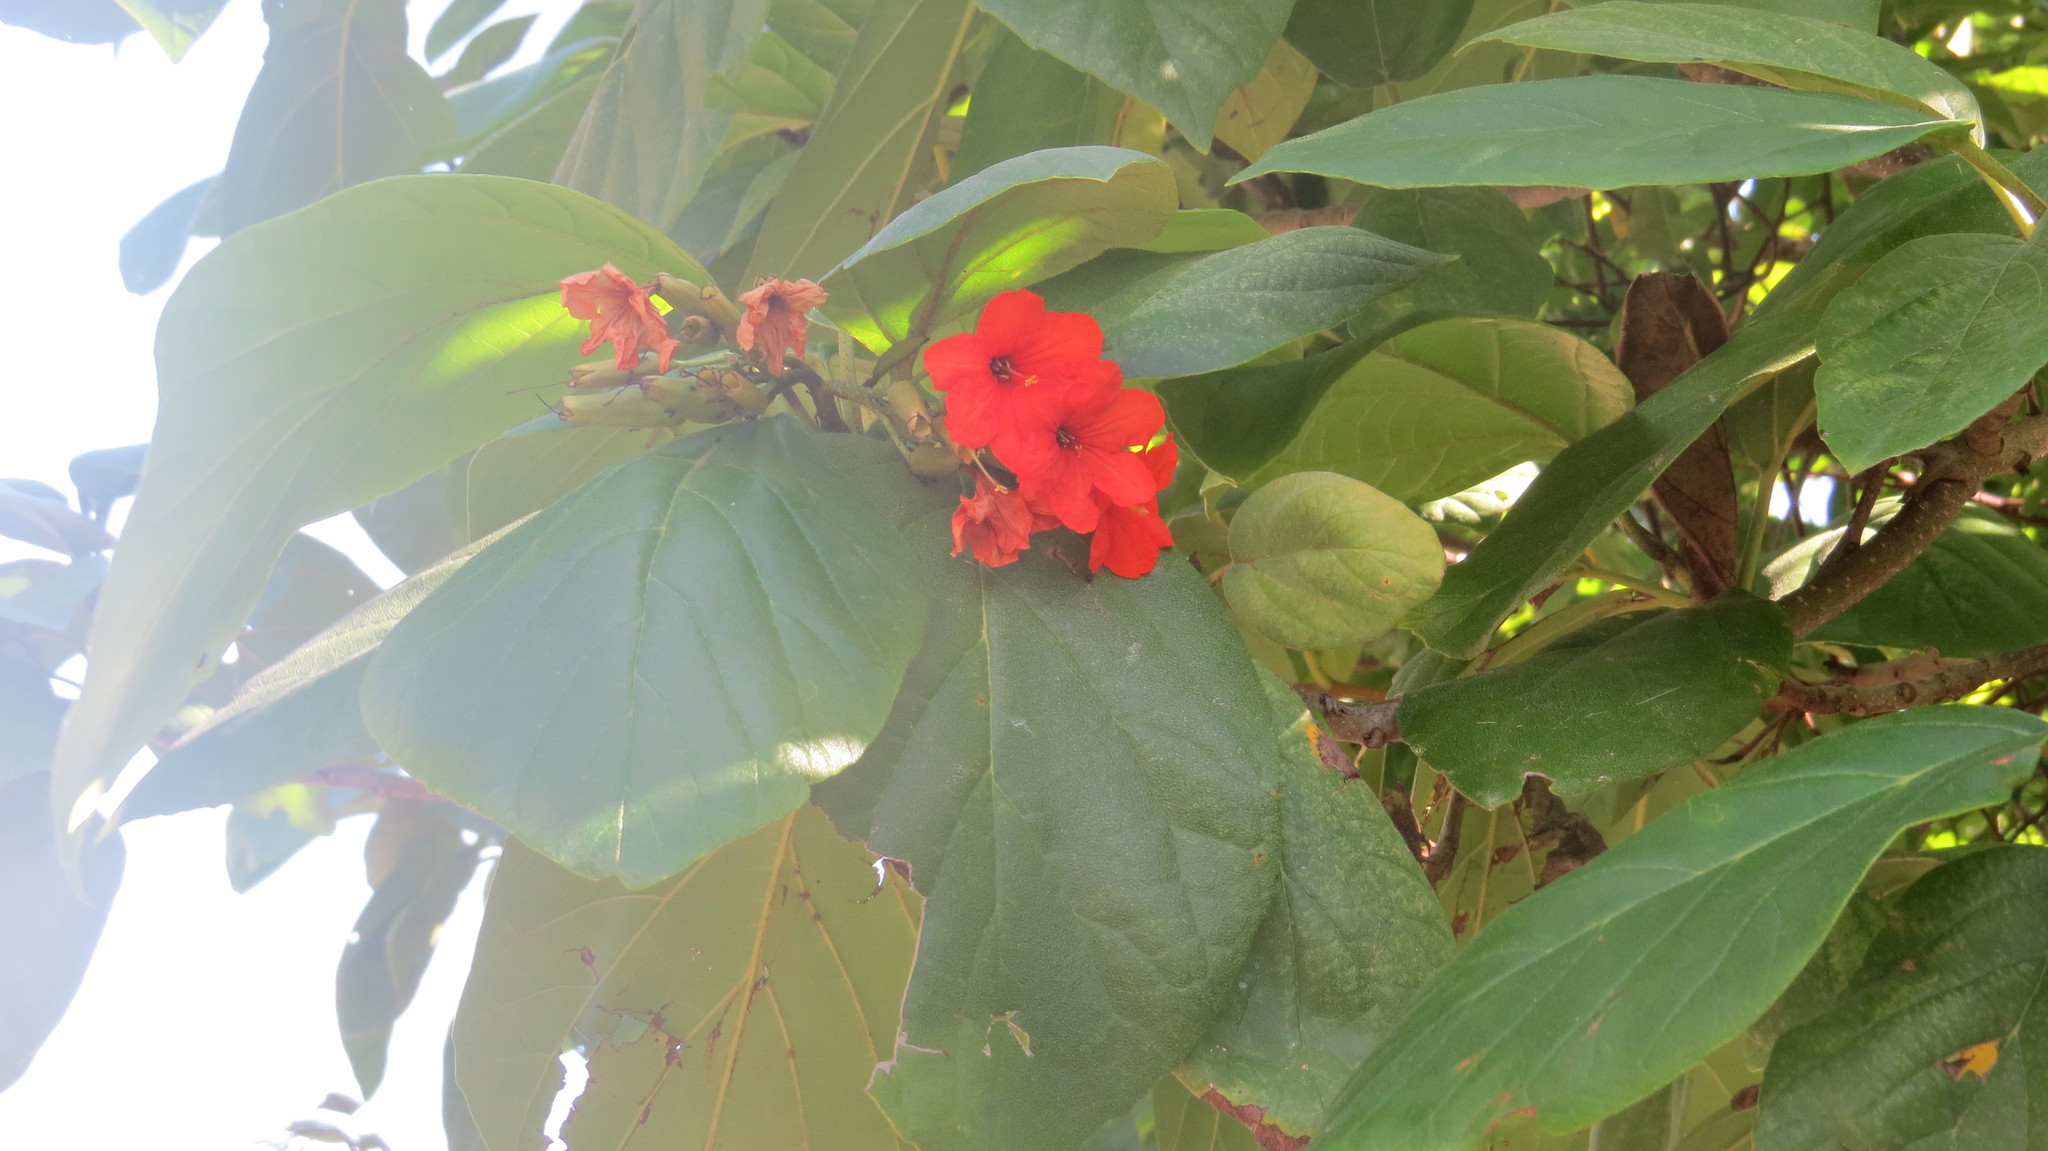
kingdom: Plantae
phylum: Tracheophyta
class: Magnoliopsida
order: Boraginales
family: Cordiaceae
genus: Cordia
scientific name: Cordia sebestena
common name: Largeleaf geigertree
